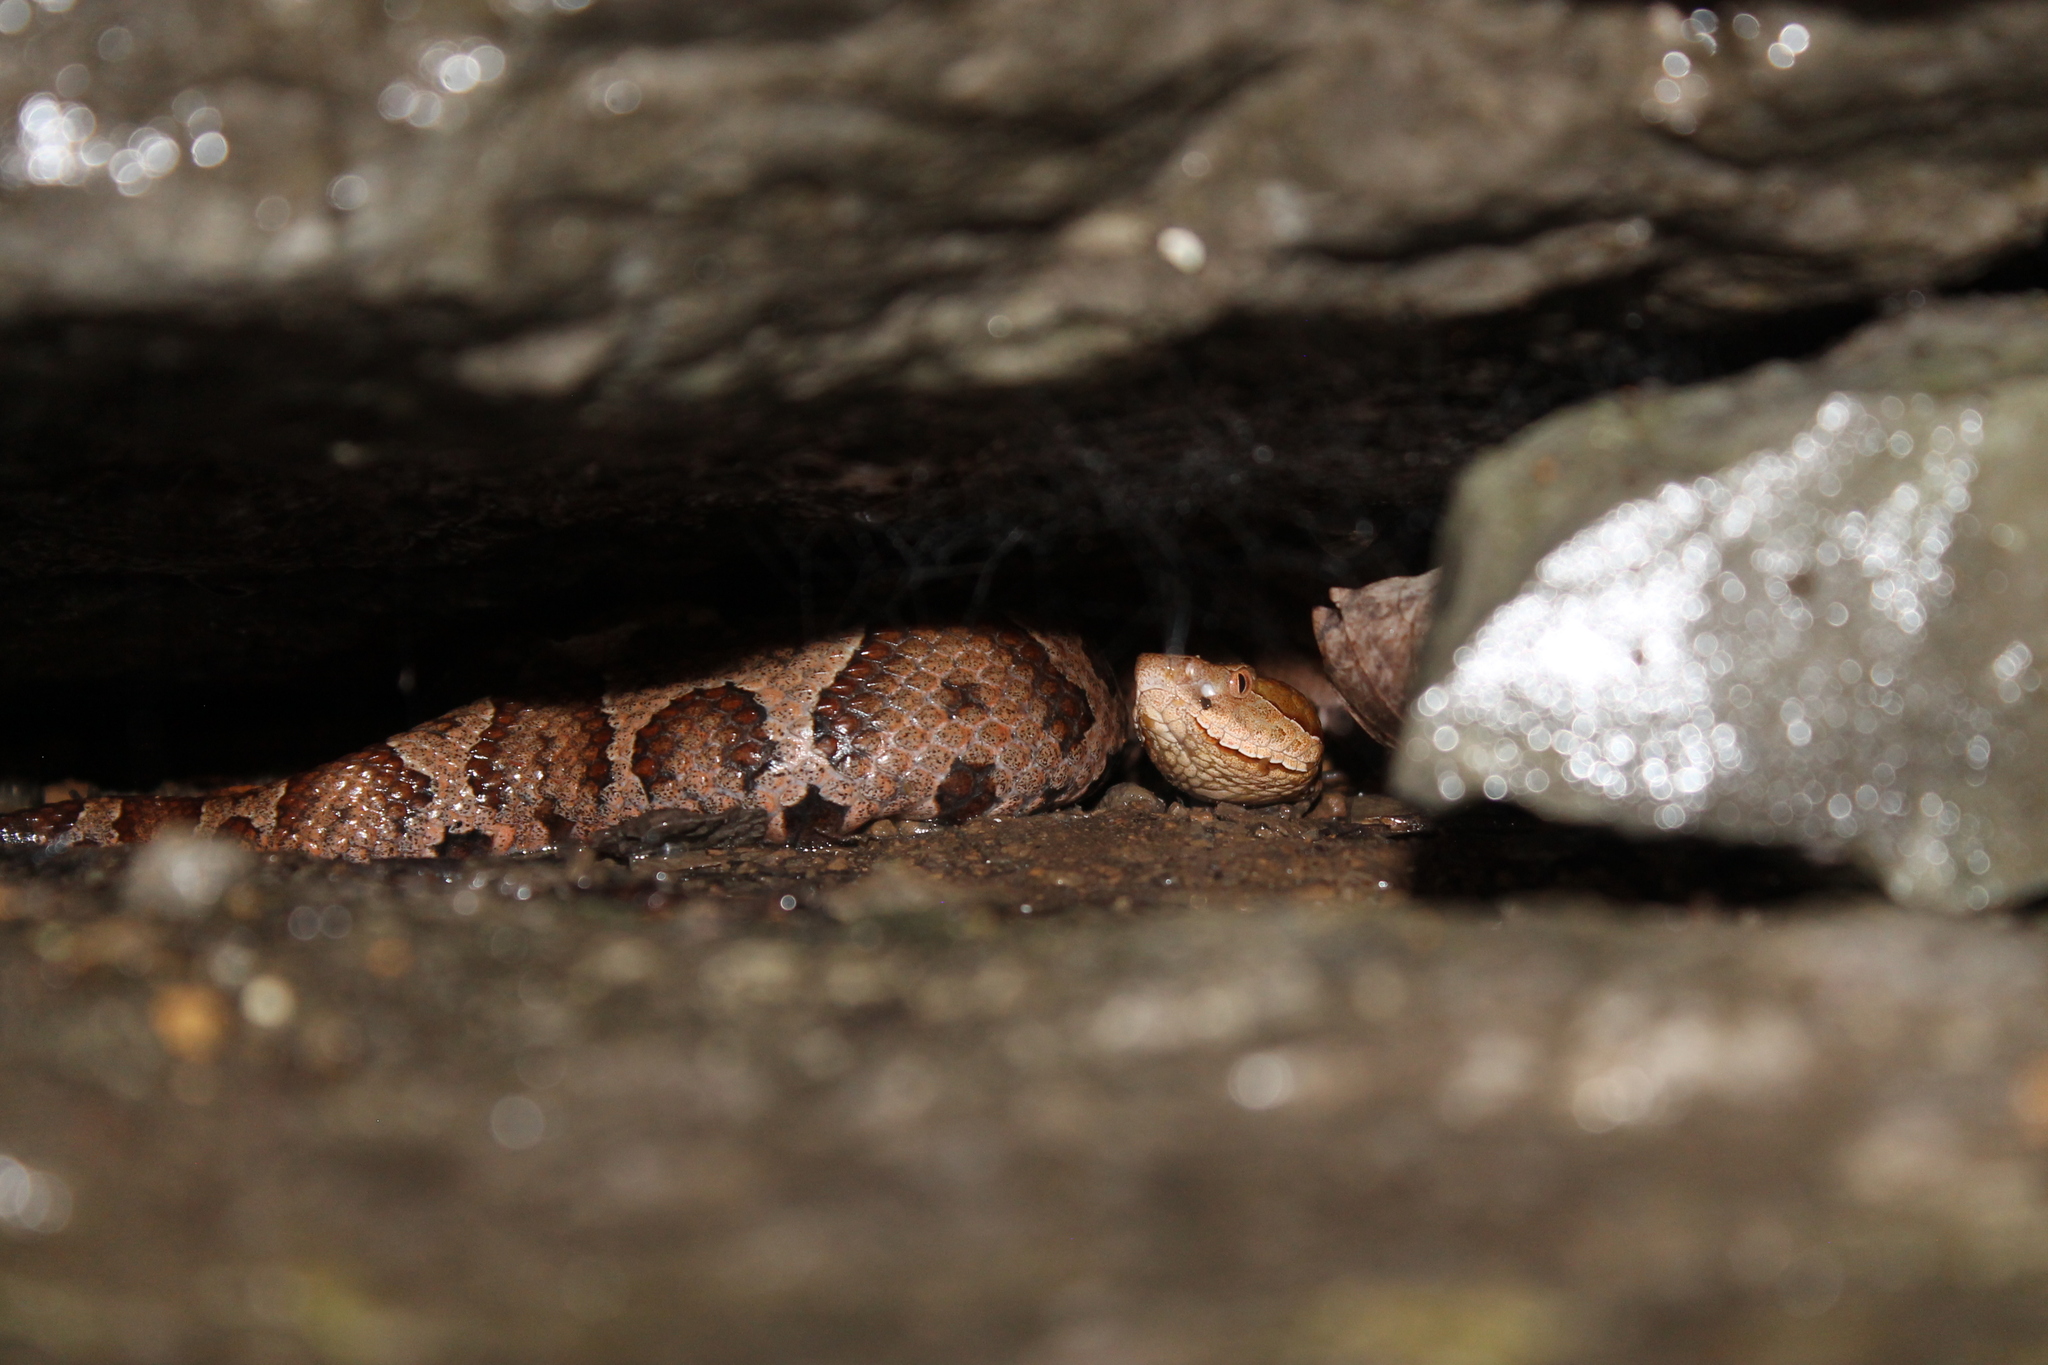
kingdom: Animalia
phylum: Chordata
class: Squamata
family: Viperidae
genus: Agkistrodon
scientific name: Agkistrodon contortrix
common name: Northern copperhead
